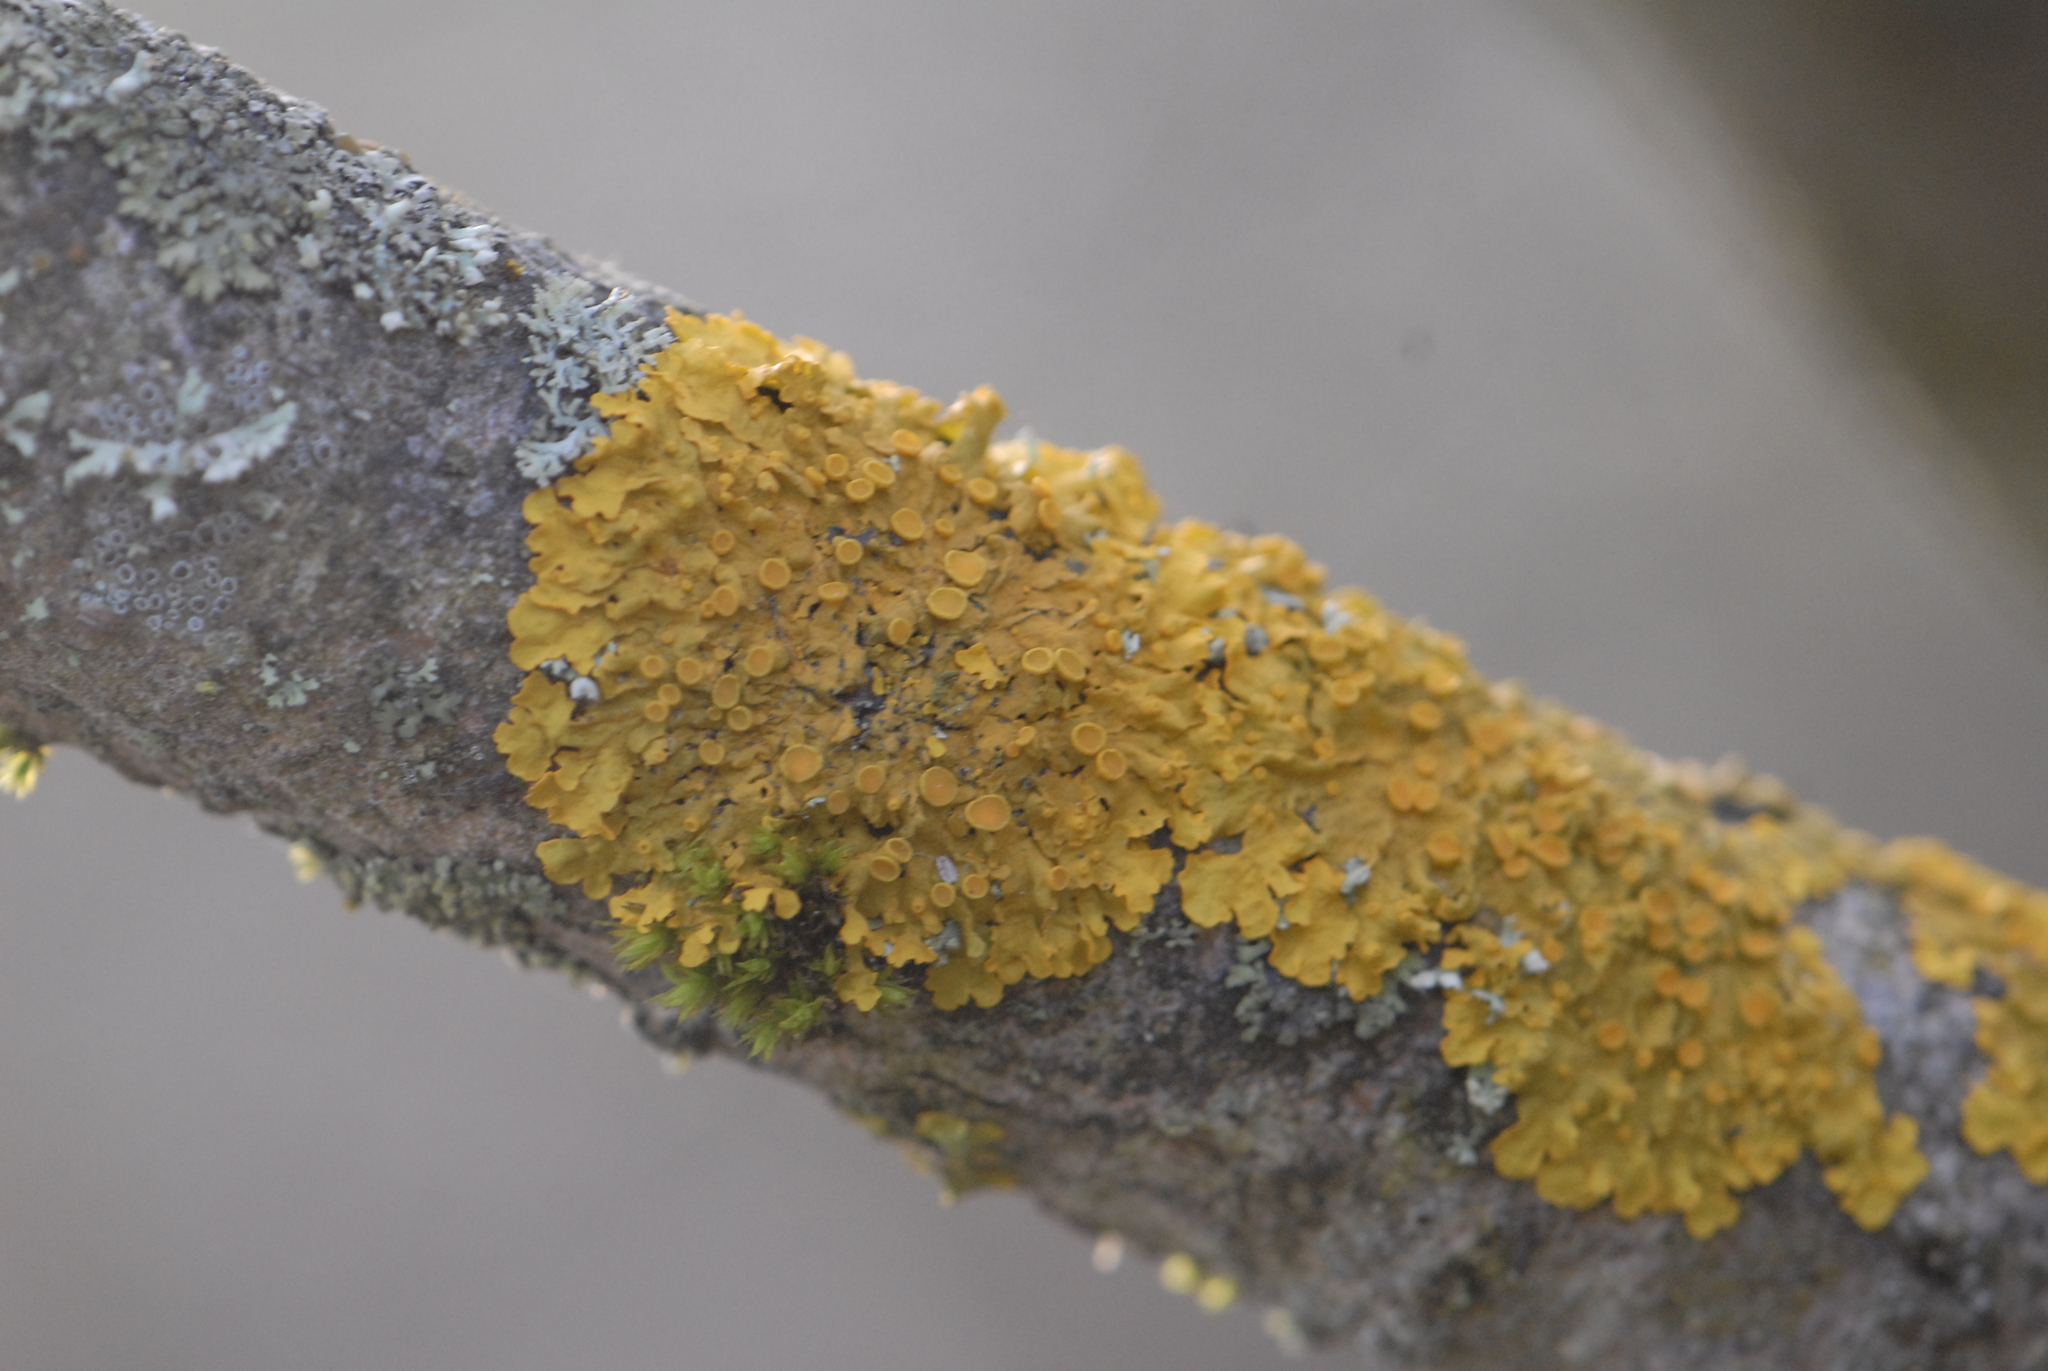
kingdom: Fungi
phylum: Ascomycota
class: Lecanoromycetes
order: Teloschistales
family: Teloschistaceae
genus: Xanthoria
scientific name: Xanthoria parietina
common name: Common orange lichen
